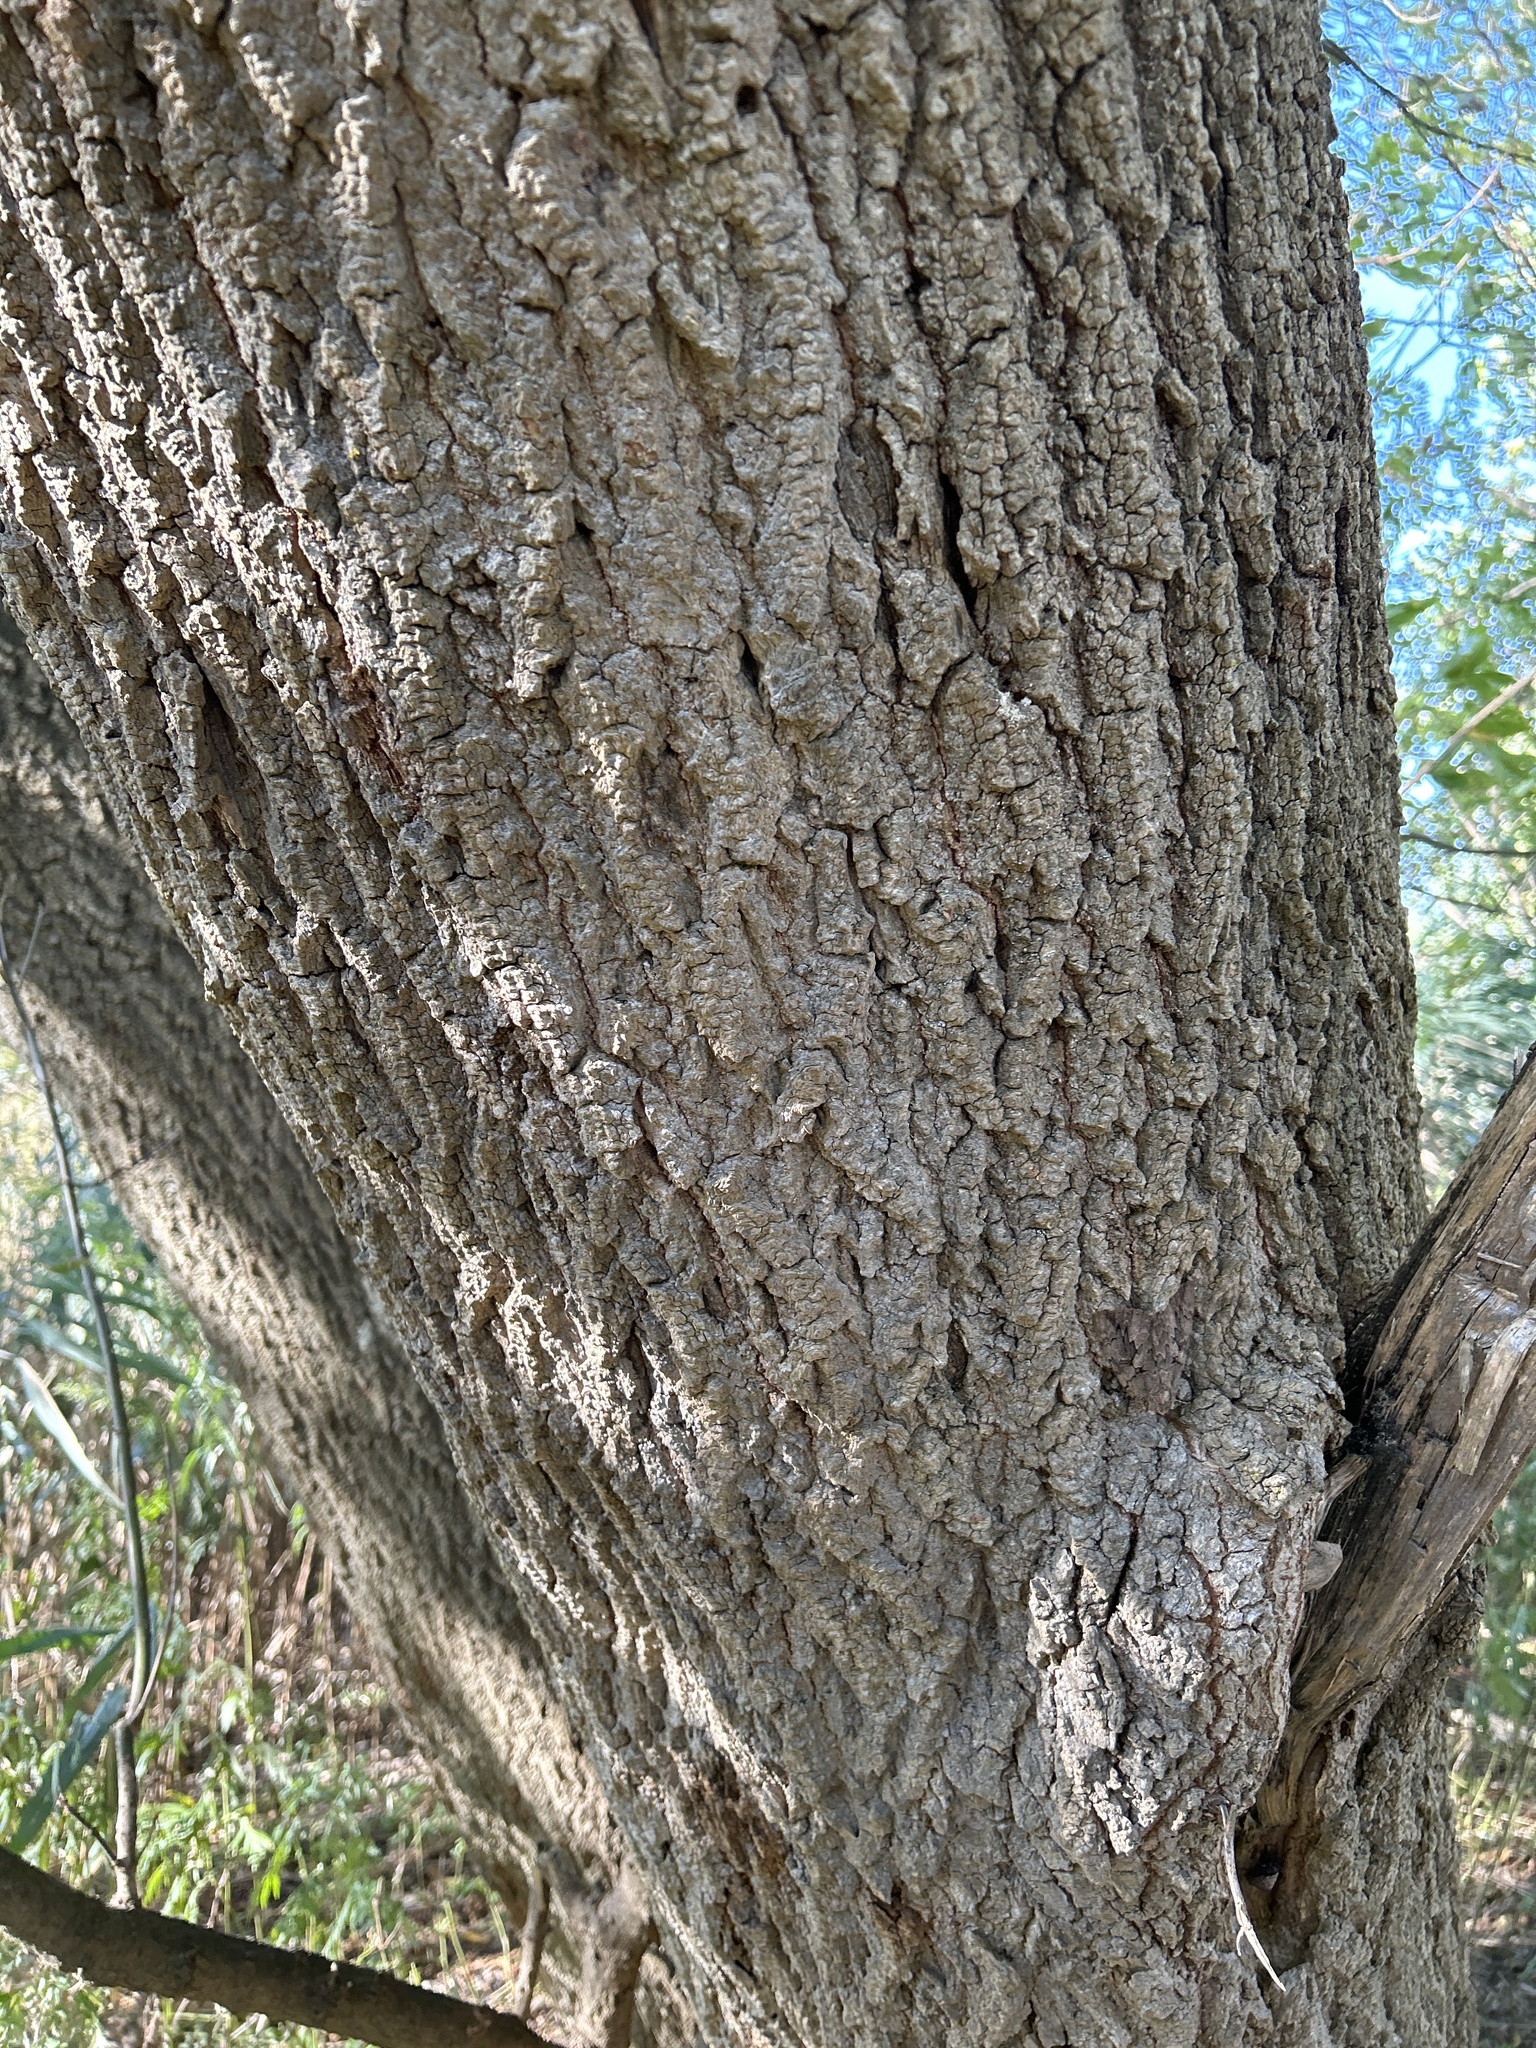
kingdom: Plantae
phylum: Tracheophyta
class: Magnoliopsida
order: Sapindales
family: Sapindaceae
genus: Acer
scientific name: Acer negundo
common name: Ashleaf maple
